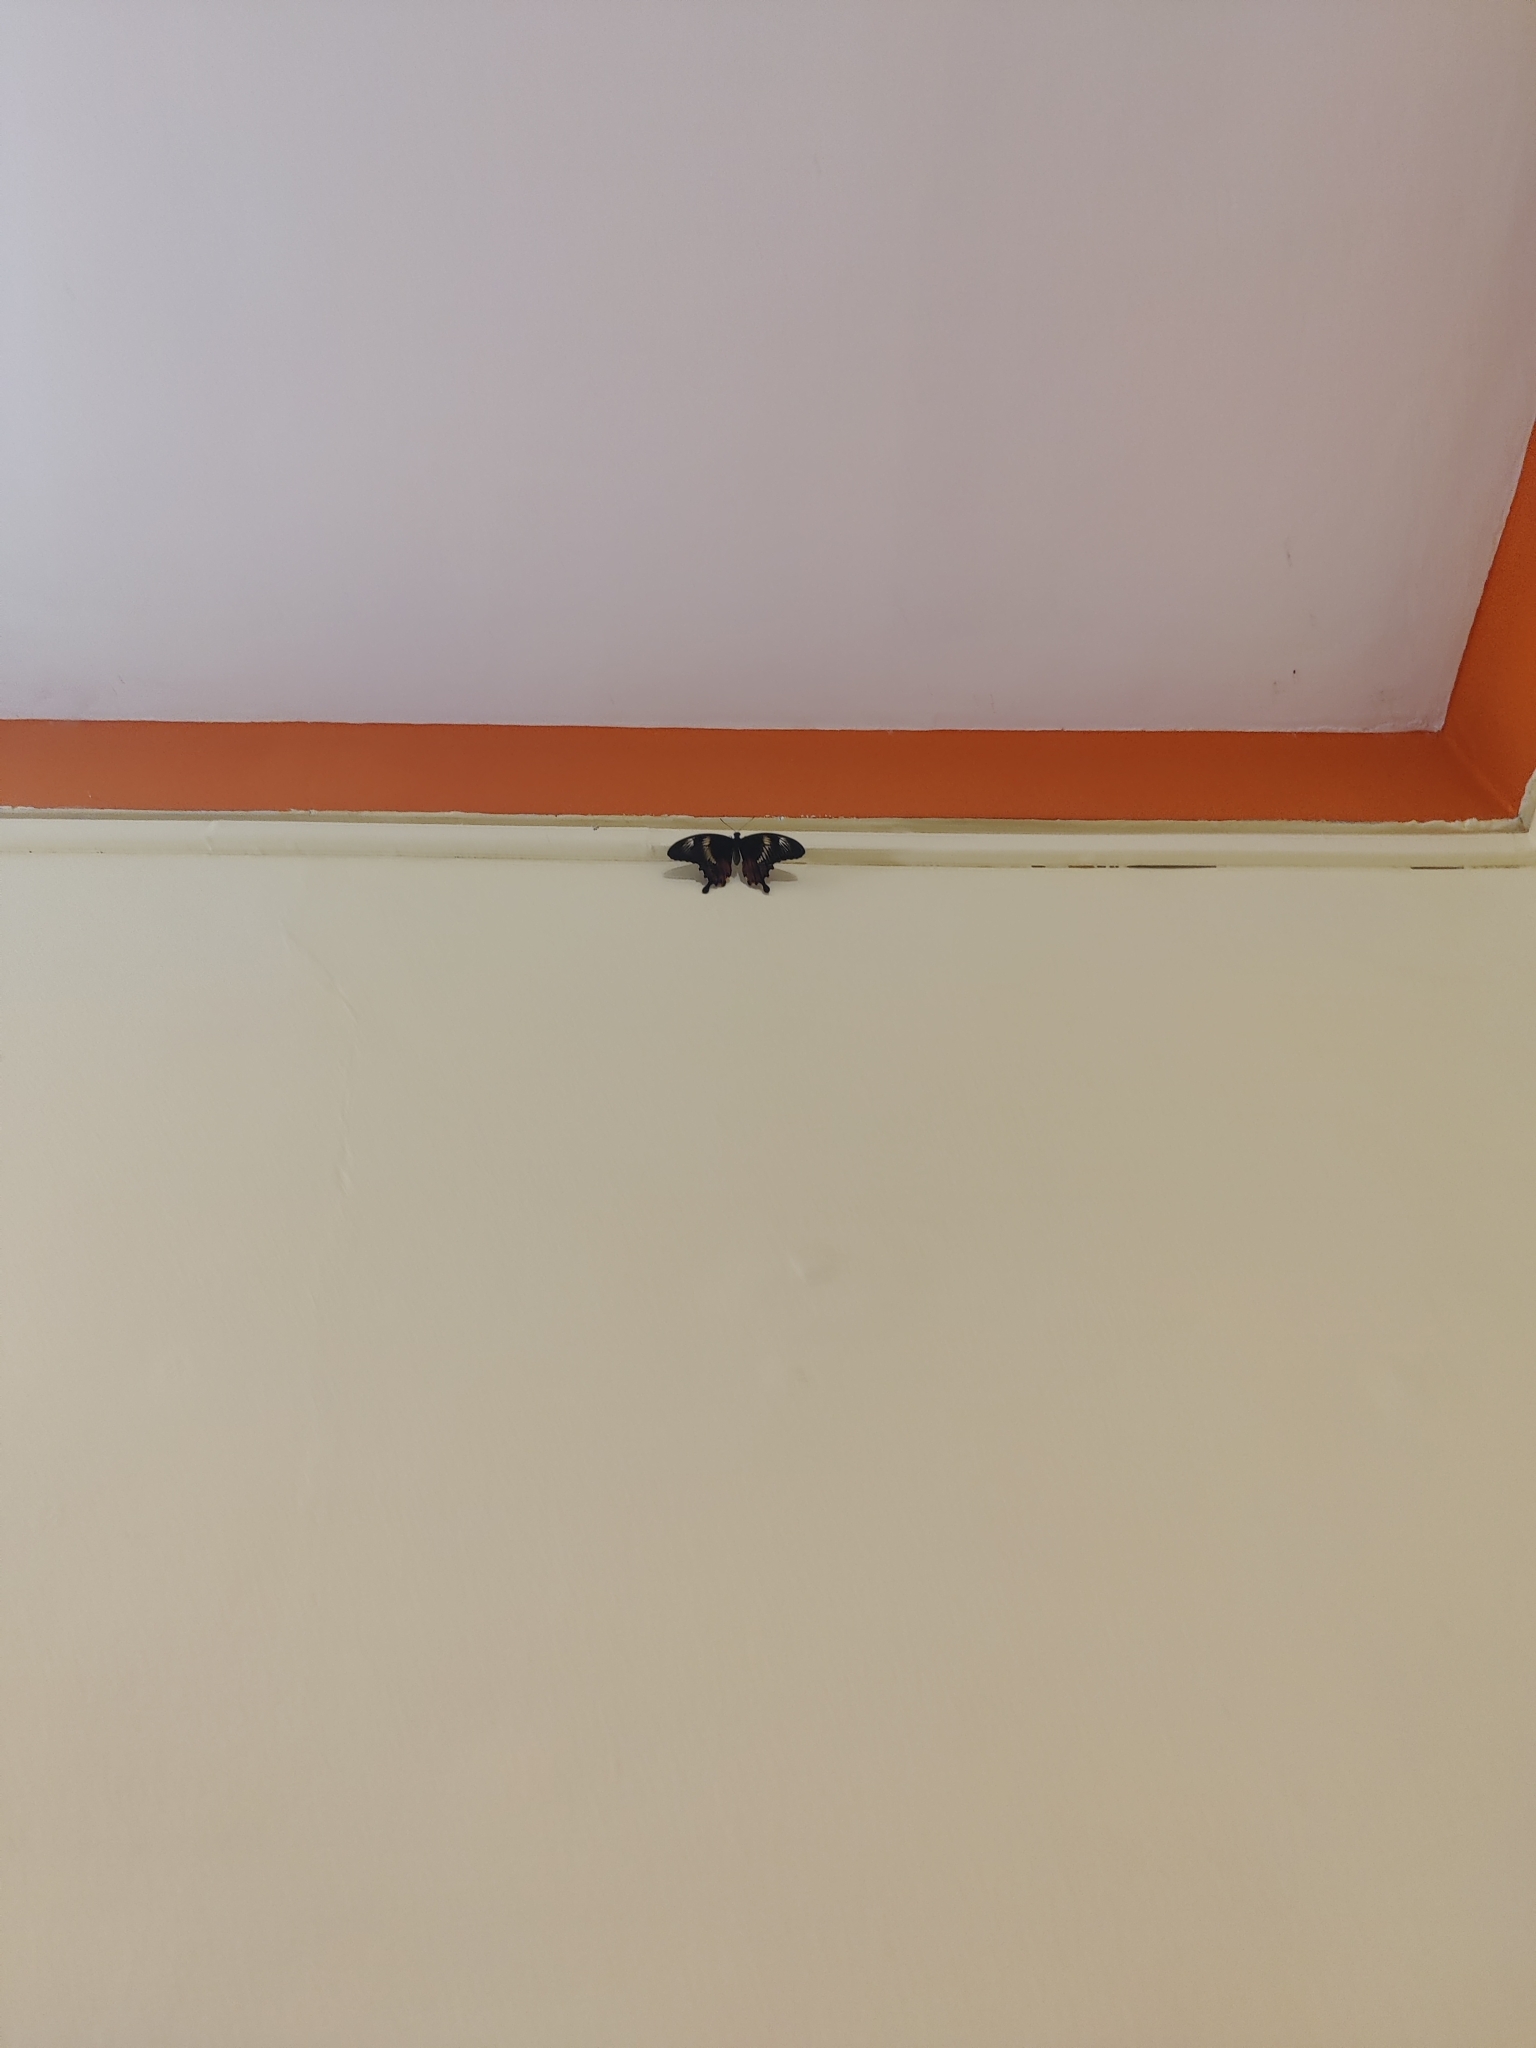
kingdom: Animalia
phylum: Arthropoda
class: Insecta
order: Lepidoptera
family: Papilionidae
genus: Papilio
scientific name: Papilio polytes
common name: Common mormon
